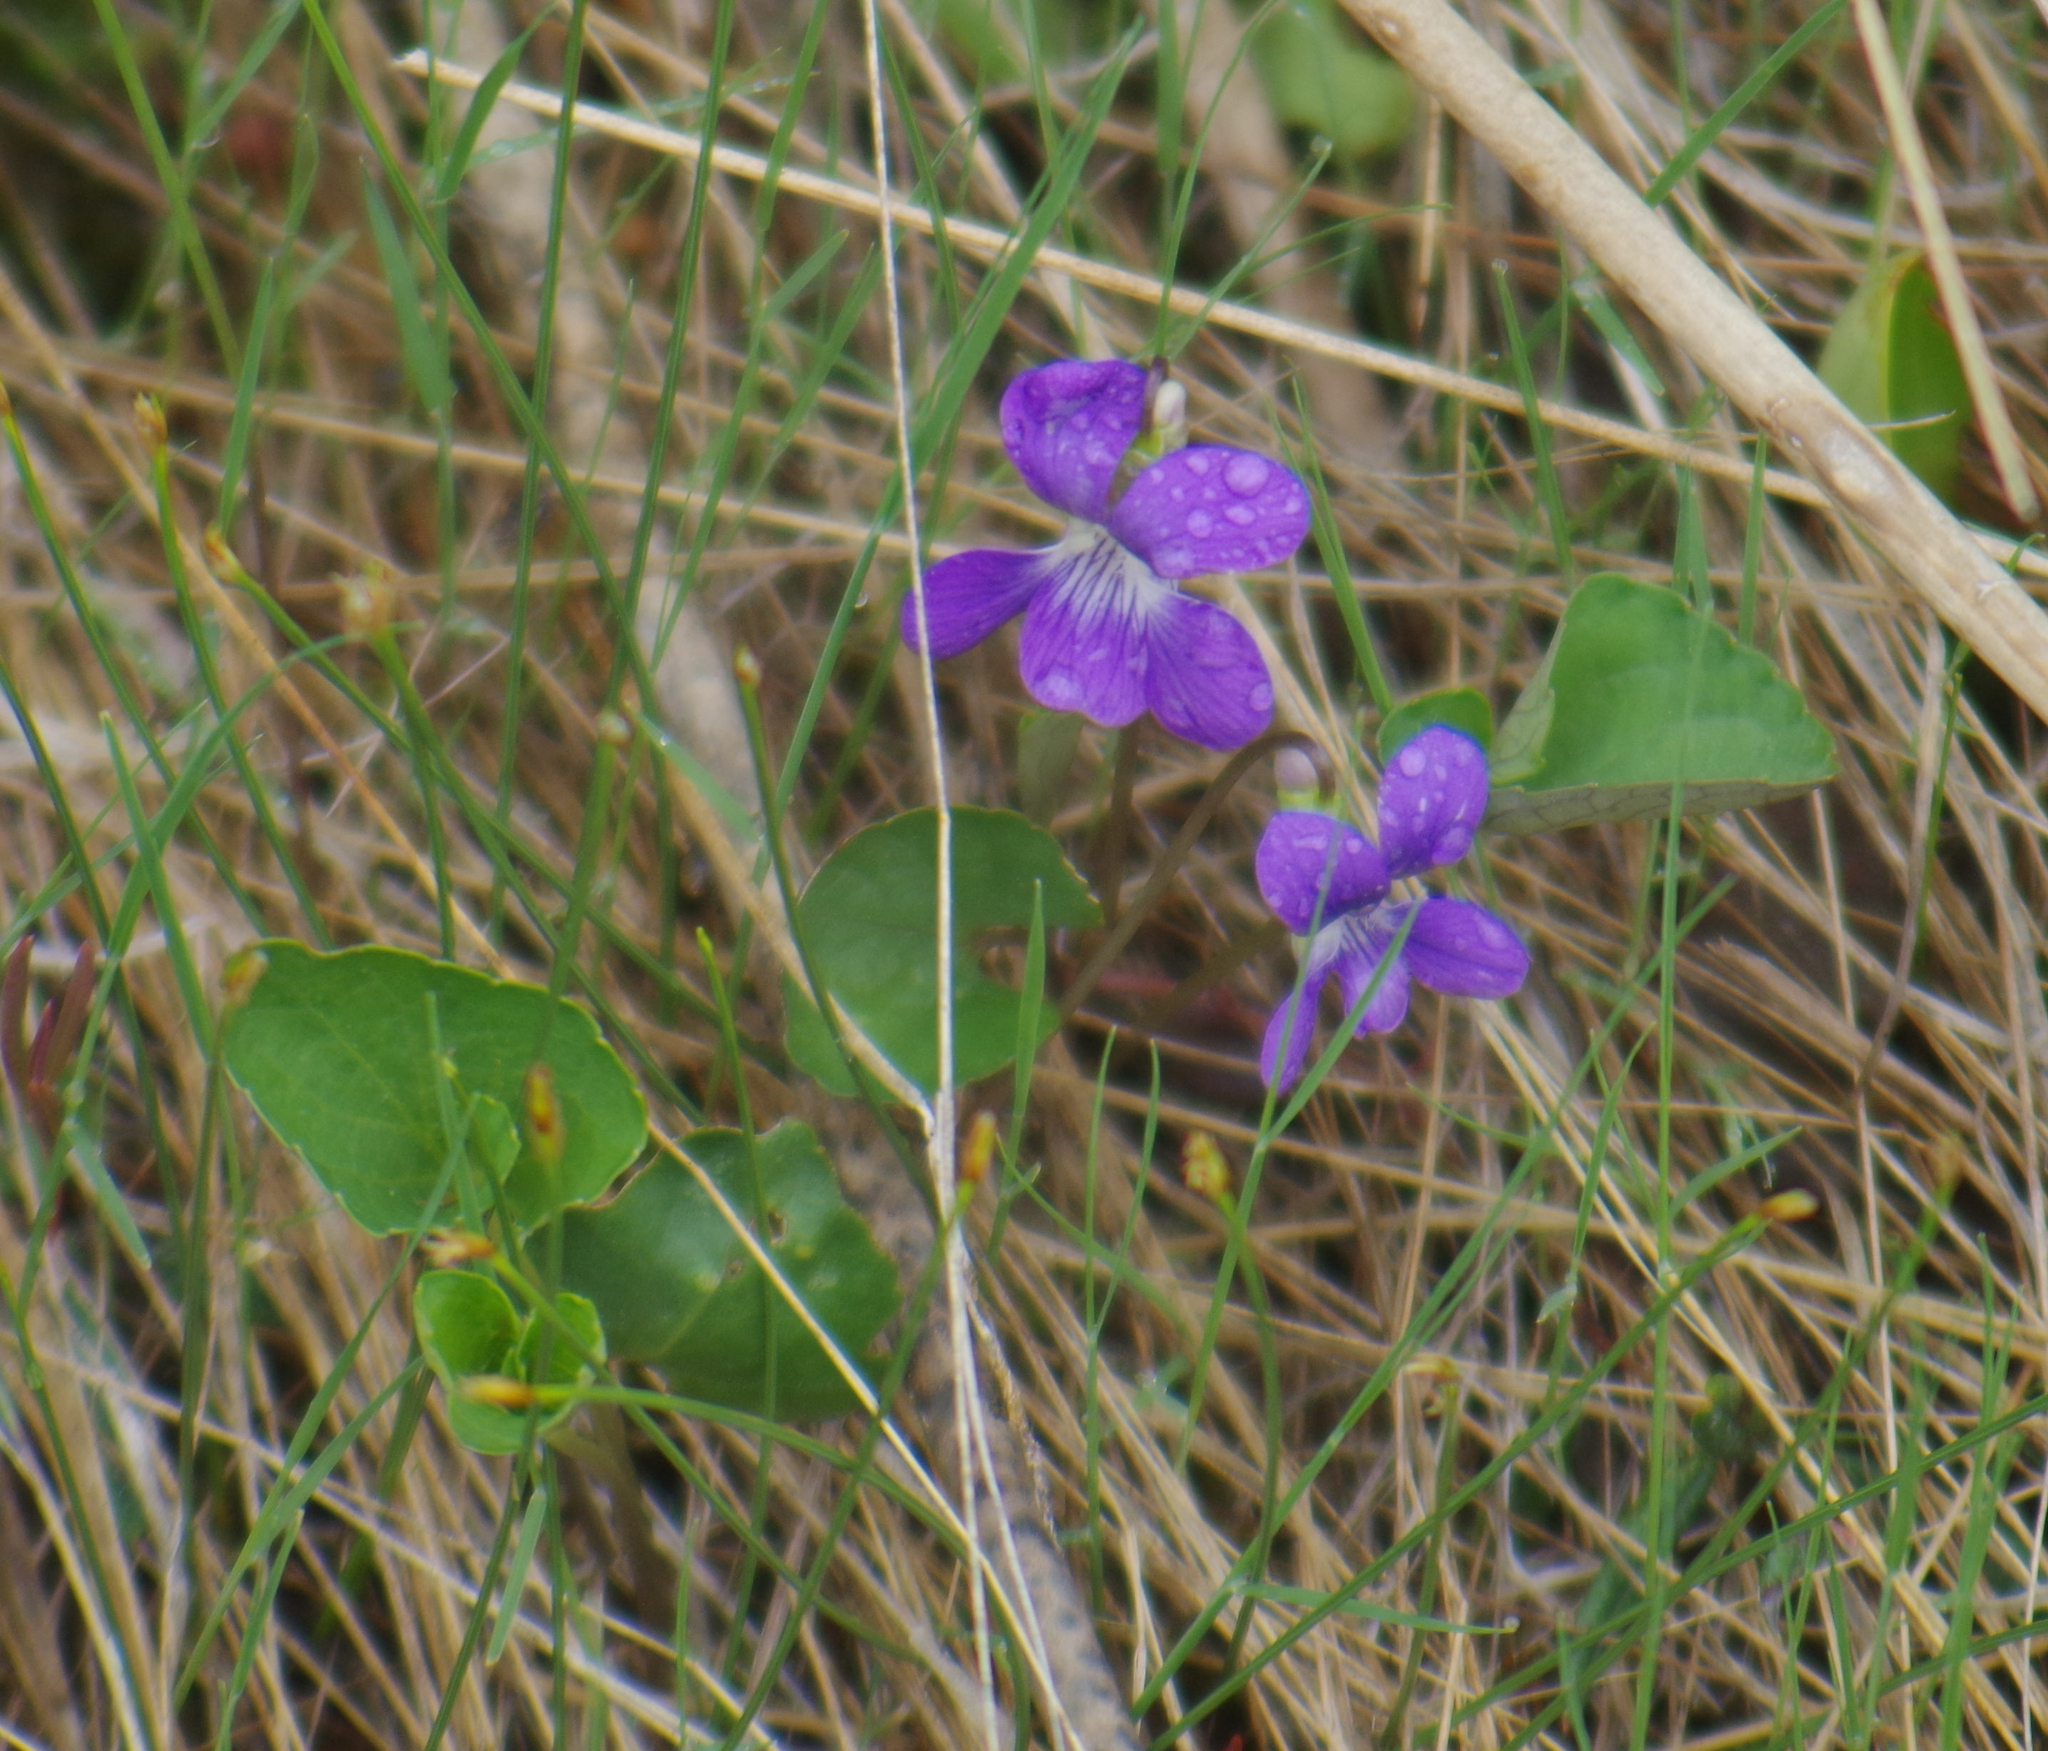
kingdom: Plantae
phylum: Tracheophyta
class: Magnoliopsida
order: Malpighiales
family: Violaceae
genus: Viola
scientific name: Viola nephrophylla
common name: Blue meadow violet
